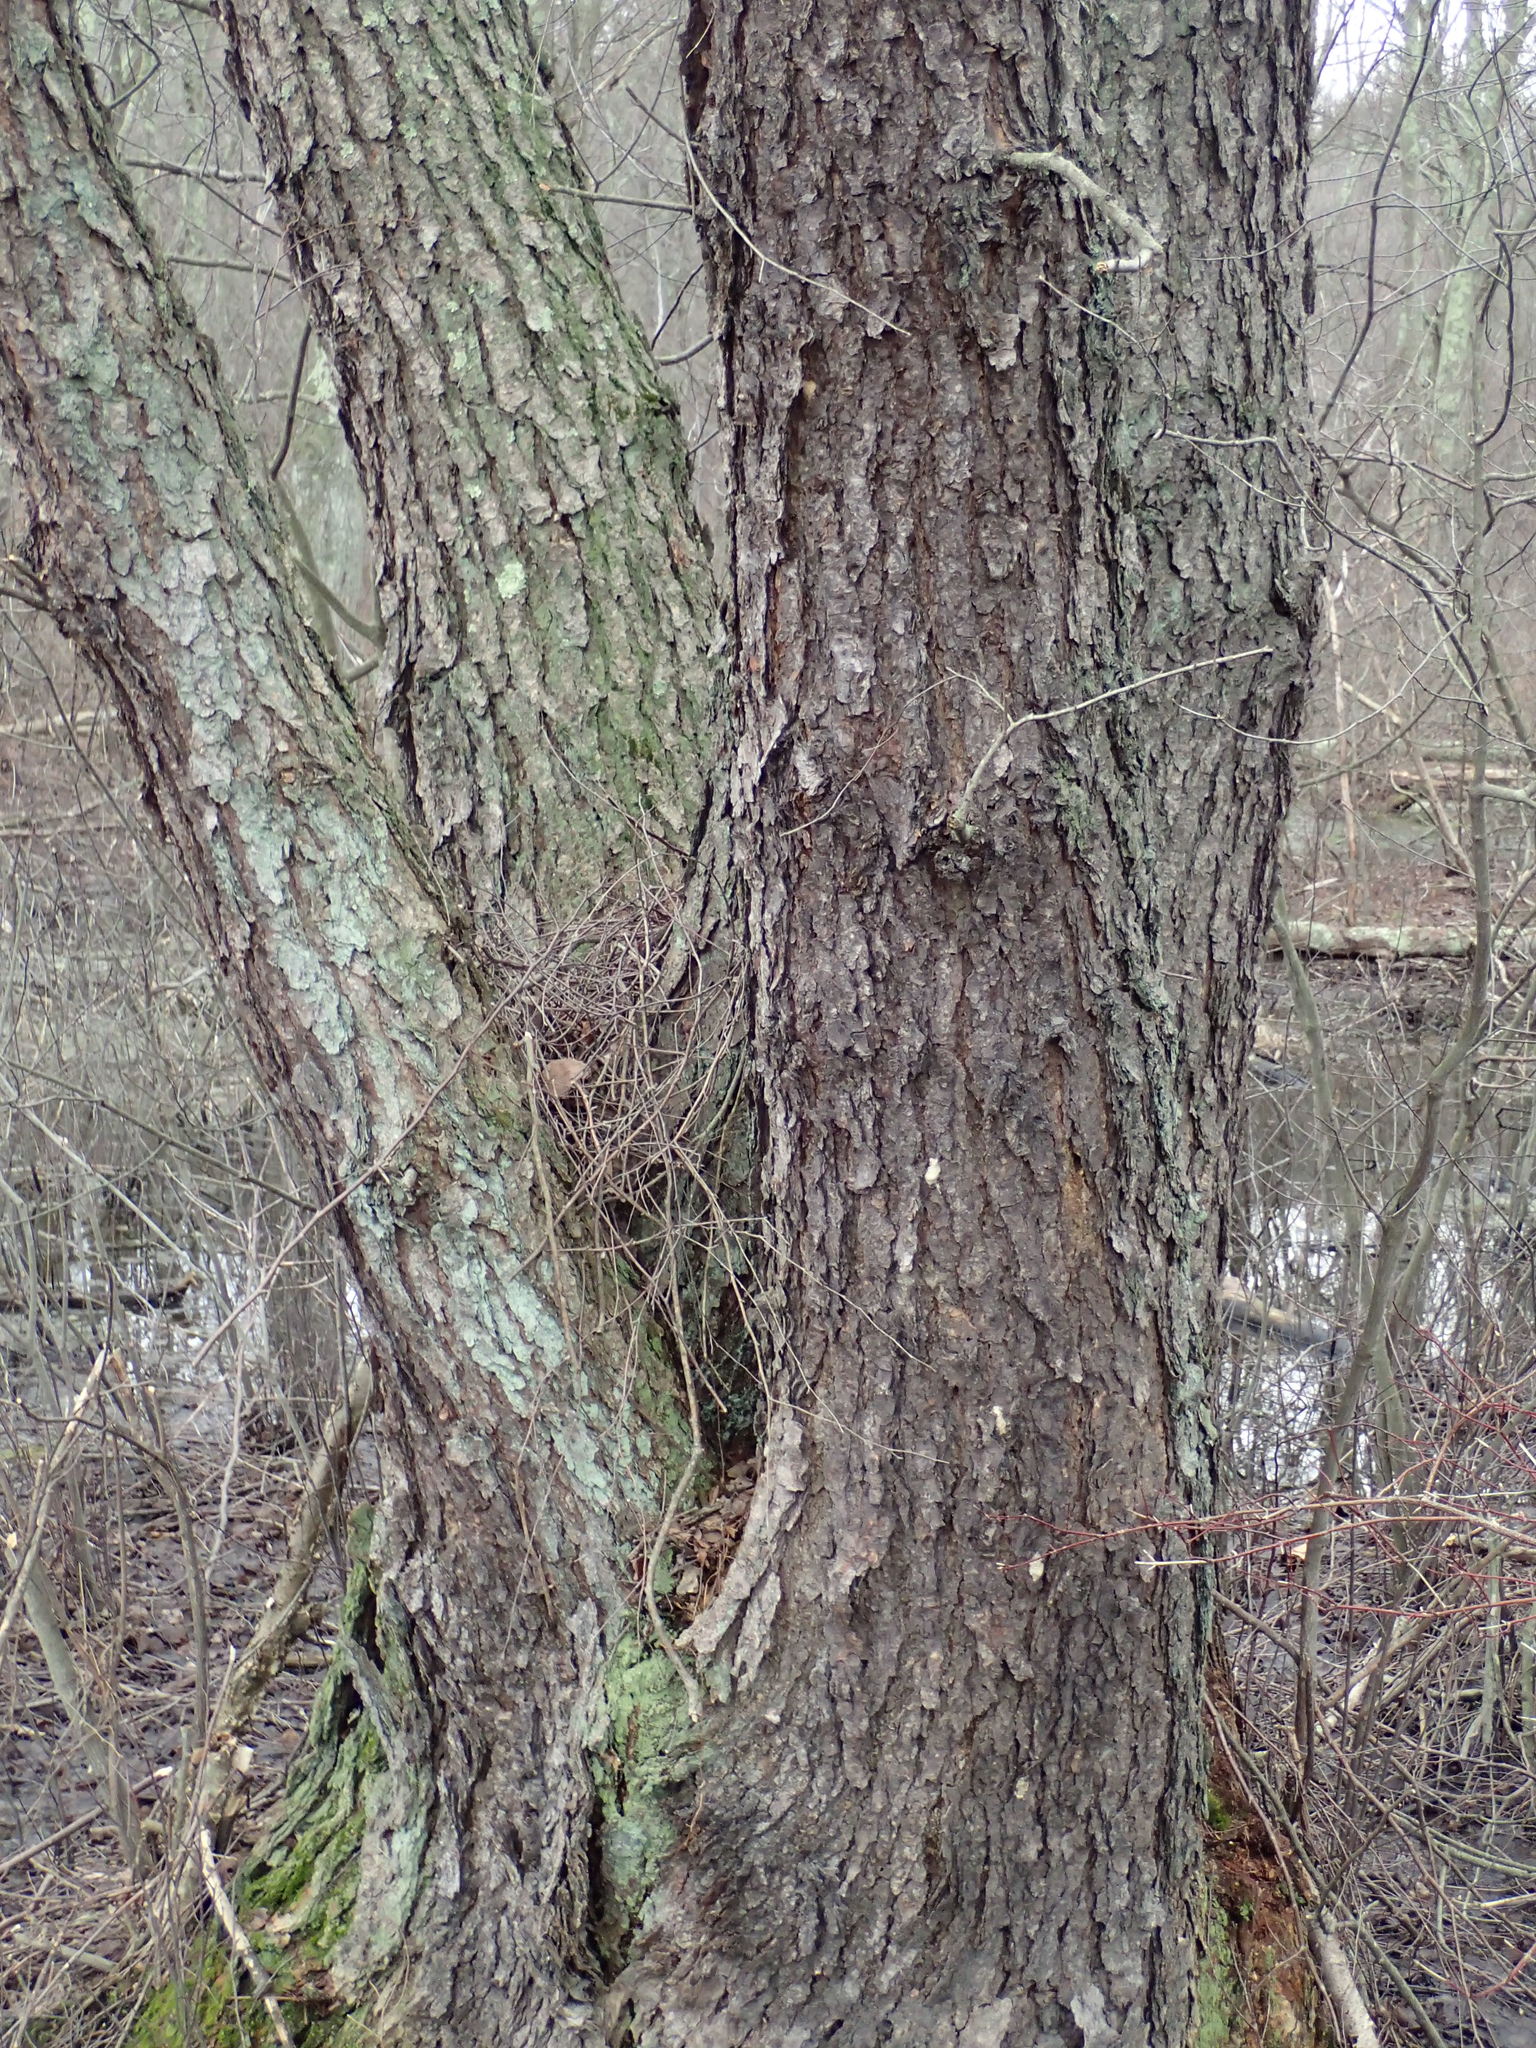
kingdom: Plantae
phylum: Tracheophyta
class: Magnoliopsida
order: Fagales
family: Betulaceae
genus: Betula
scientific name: Betula nigra
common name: Black birch
